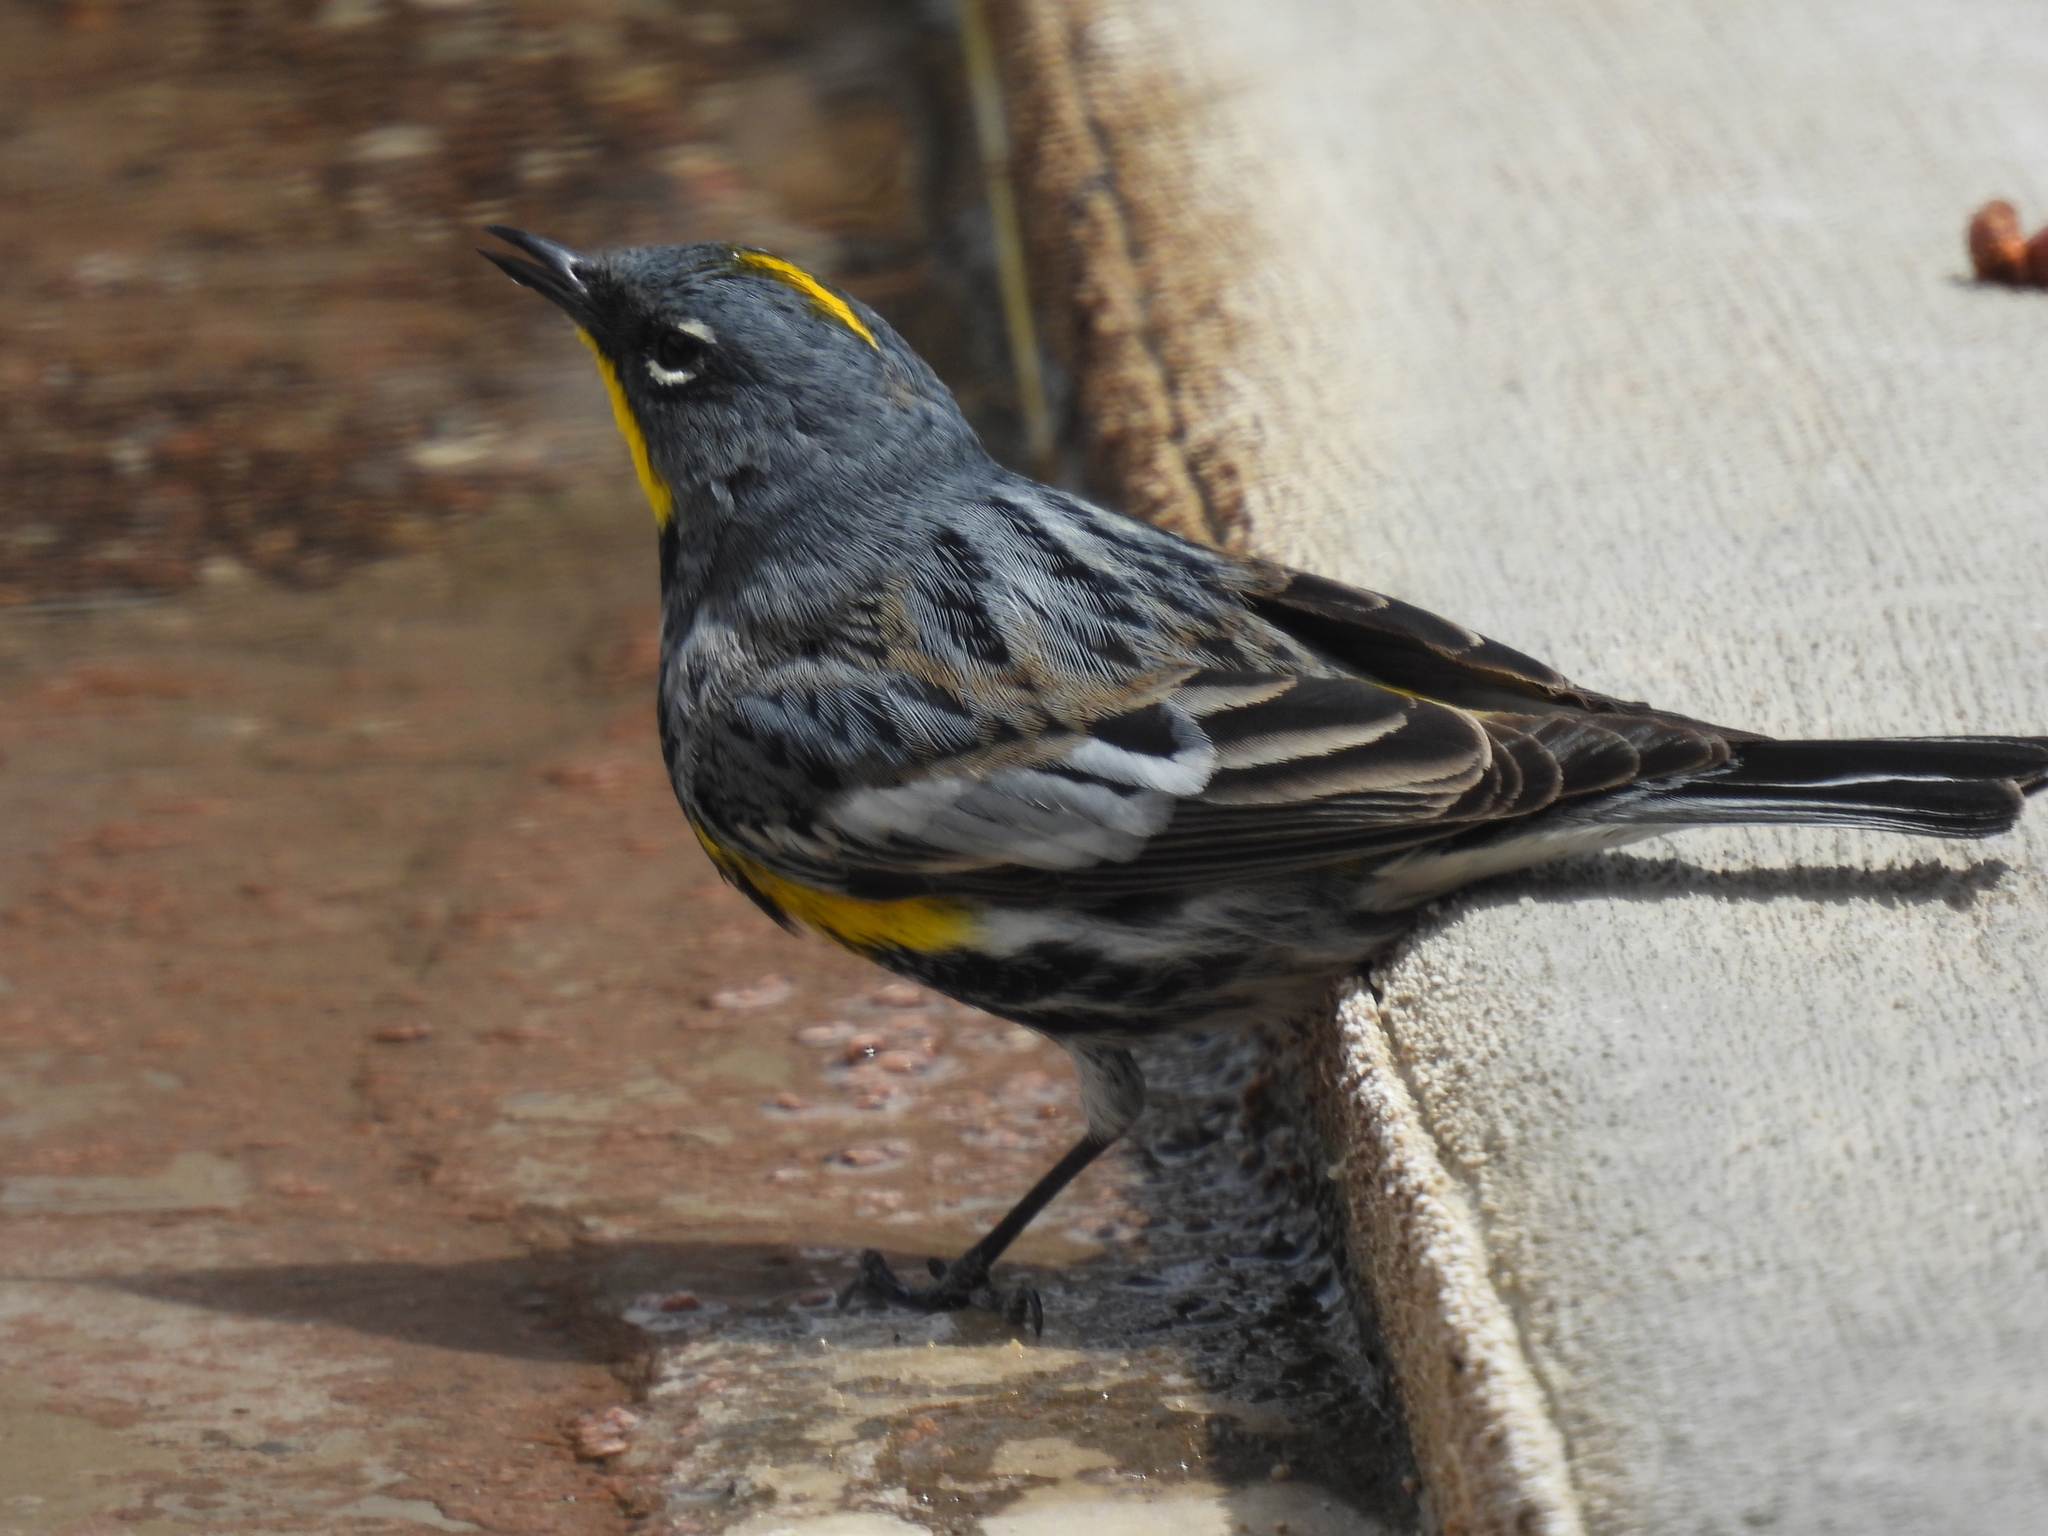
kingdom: Animalia
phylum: Chordata
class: Aves
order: Passeriformes
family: Parulidae
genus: Setophaga
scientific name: Setophaga auduboni
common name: Audubon's warbler
